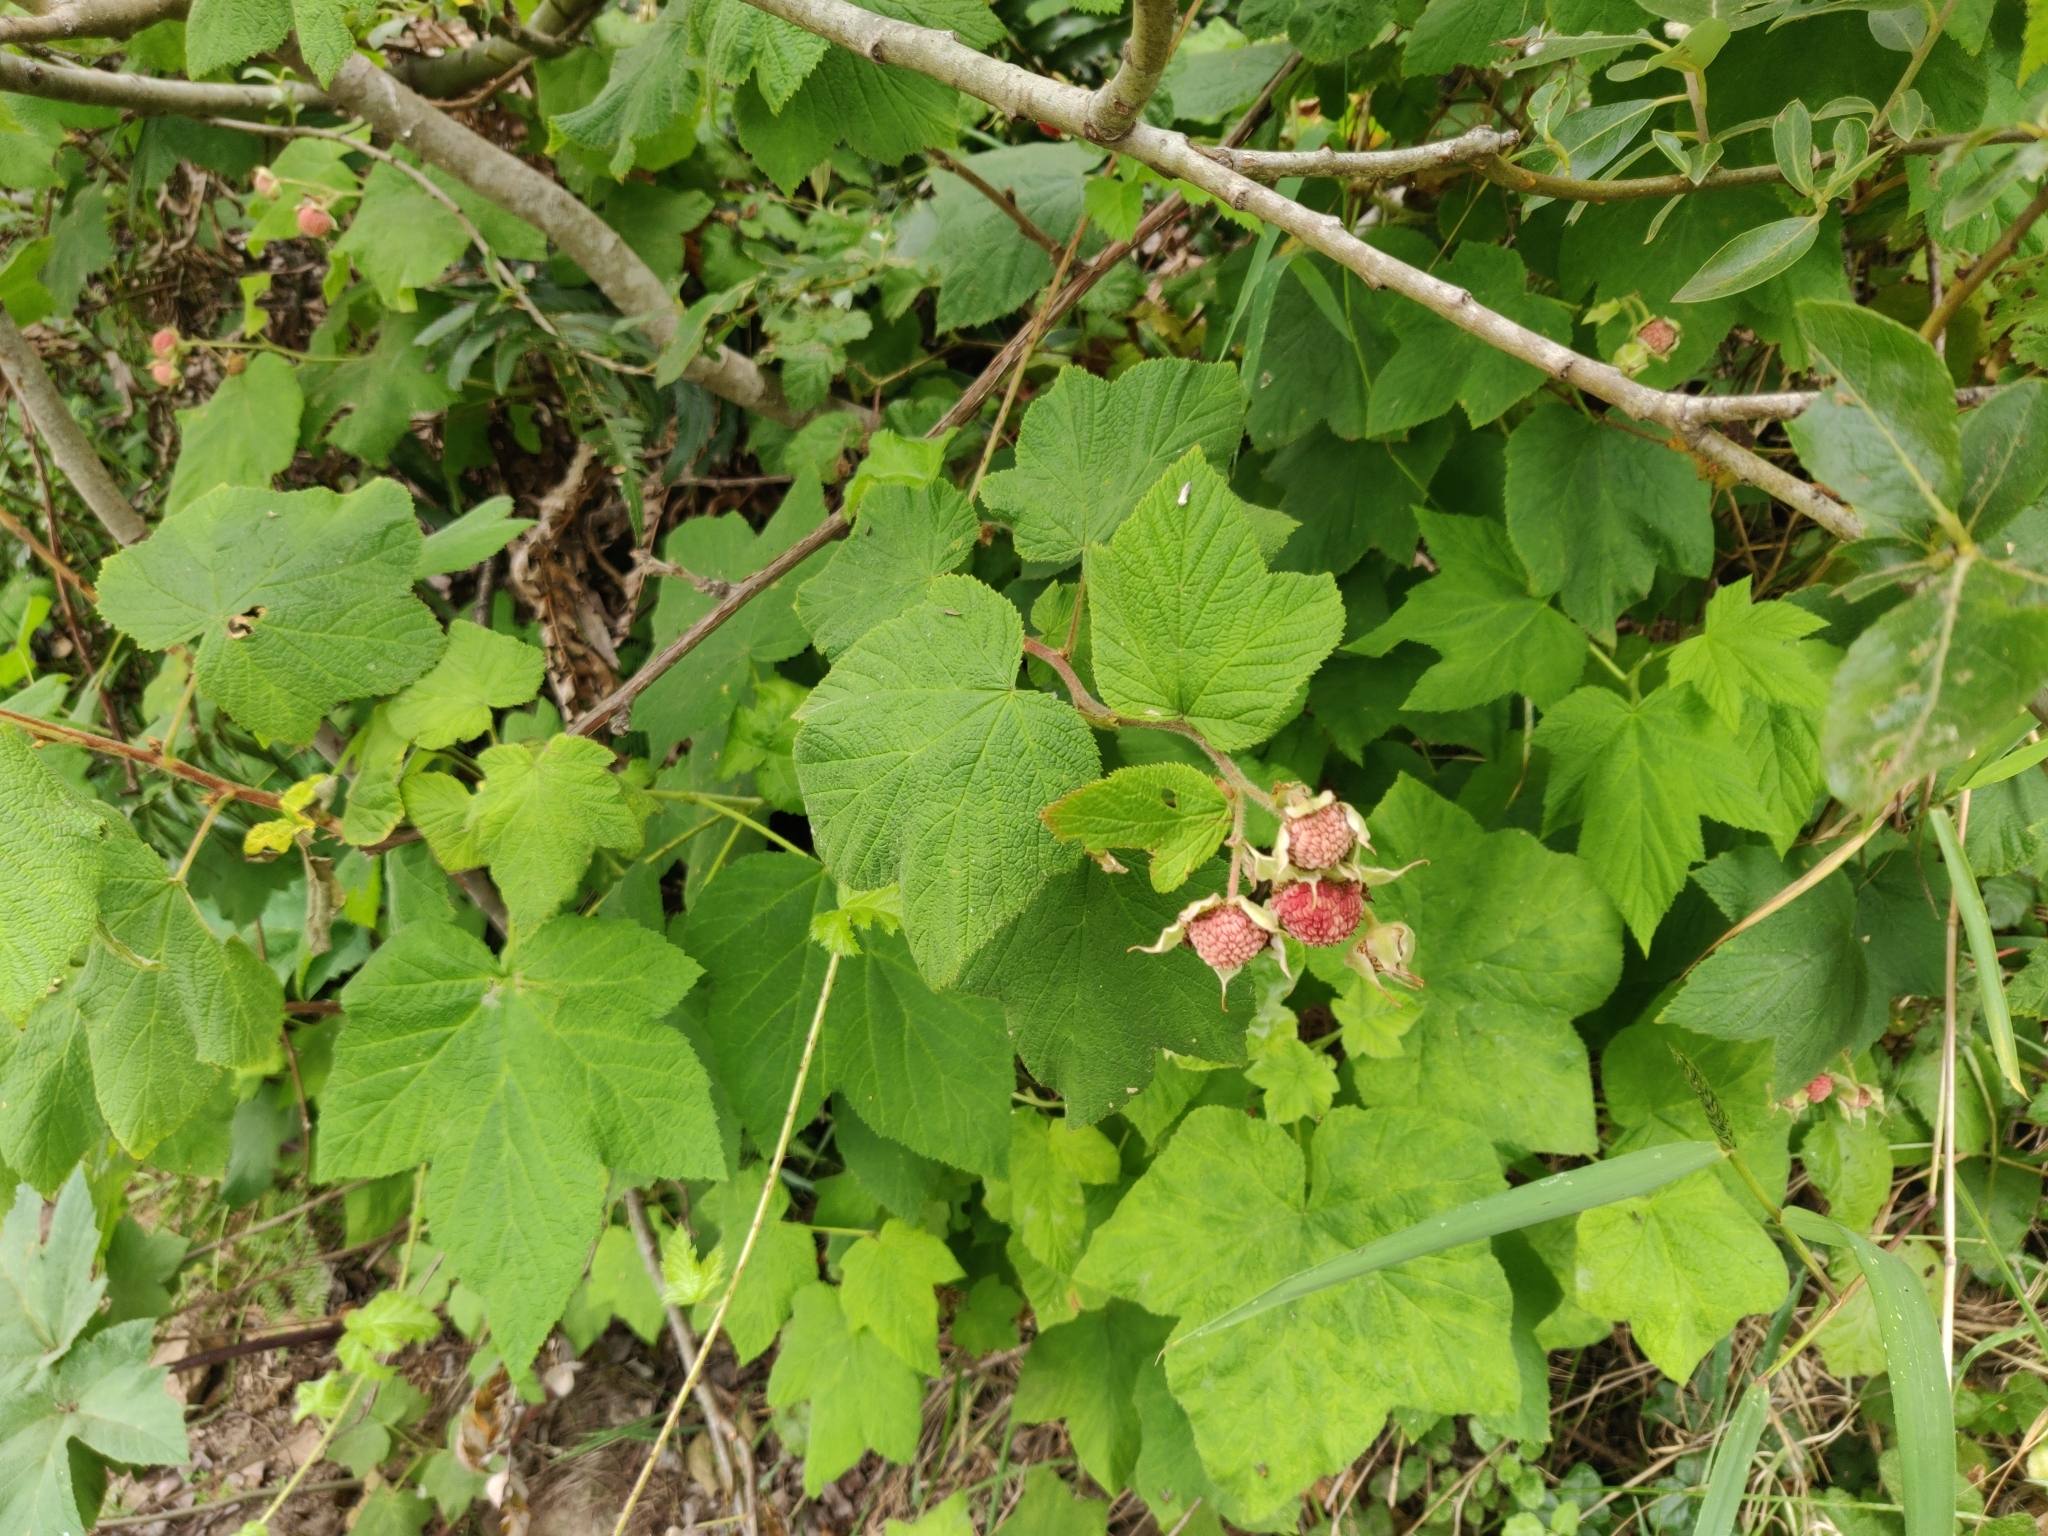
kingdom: Plantae
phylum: Tracheophyta
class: Magnoliopsida
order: Rosales
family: Rosaceae
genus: Rubus
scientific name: Rubus parviflorus
